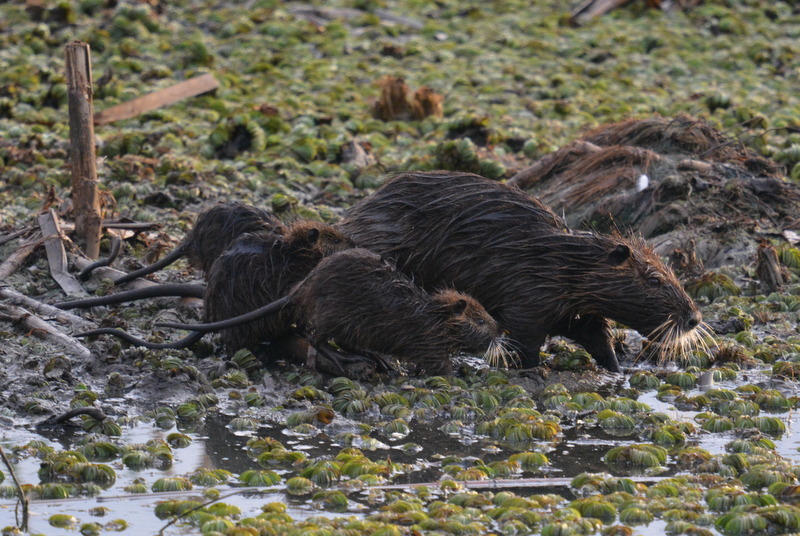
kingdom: Animalia
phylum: Chordata
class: Mammalia
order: Rodentia
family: Myocastoridae
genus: Myocastor
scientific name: Myocastor coypus
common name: Coypu
